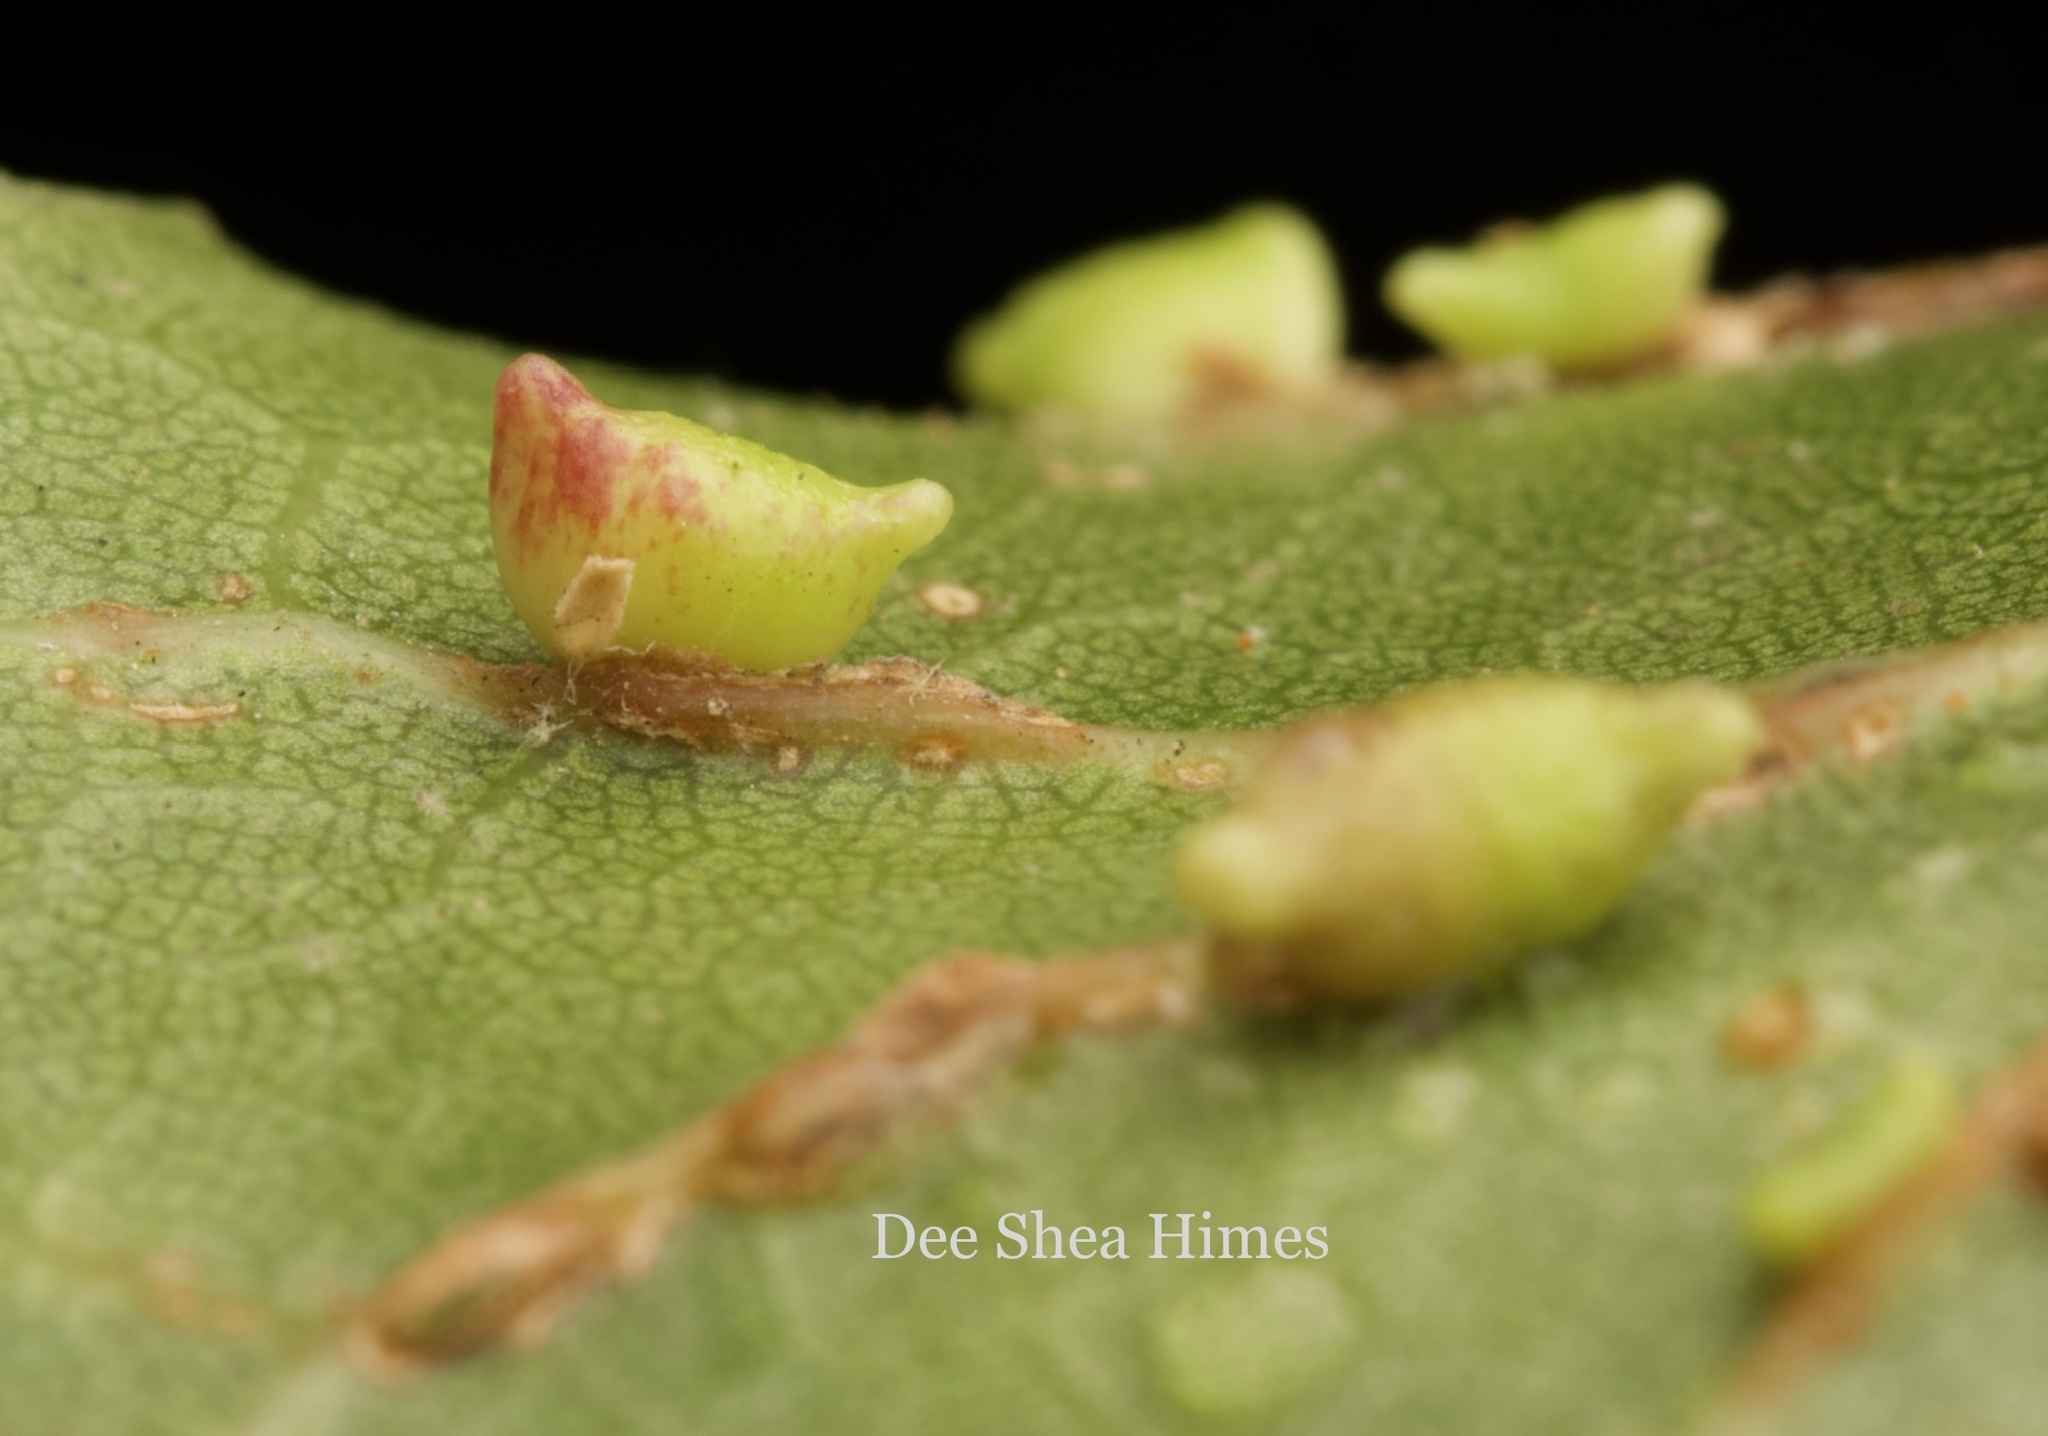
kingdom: Animalia
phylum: Arthropoda
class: Insecta
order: Hymenoptera
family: Cynipidae
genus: Dryocosmus
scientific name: Dryocosmus
